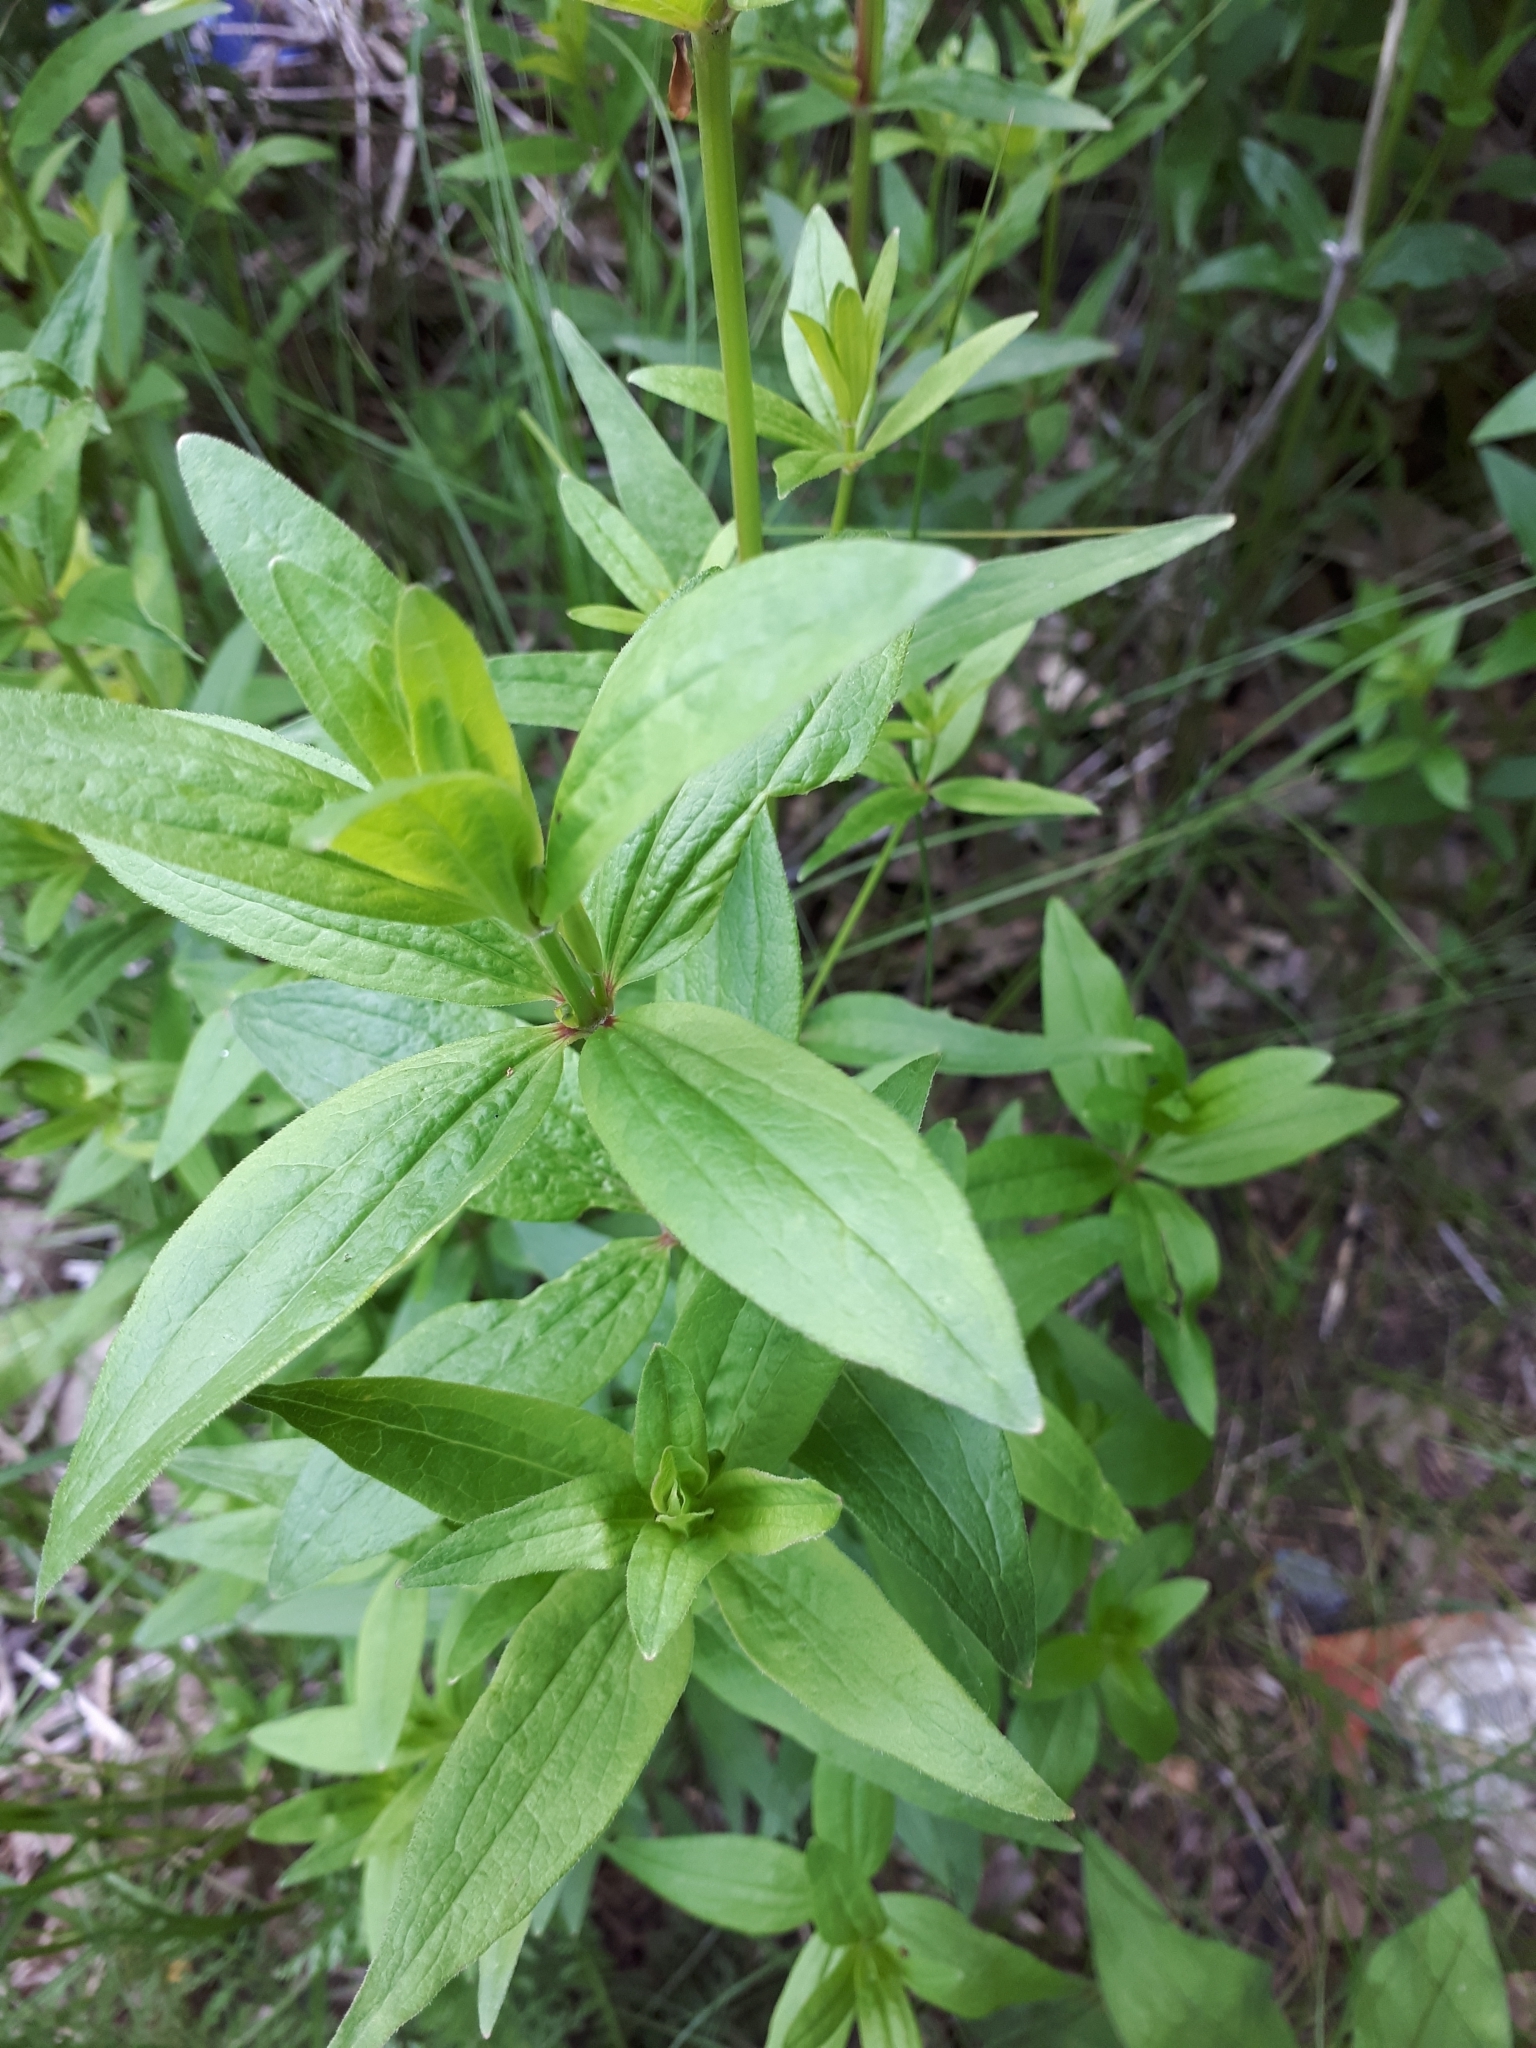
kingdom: Plantae
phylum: Tracheophyta
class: Magnoliopsida
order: Gentianales
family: Rubiaceae
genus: Galium
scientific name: Galium rubioides
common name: European bedstraw
